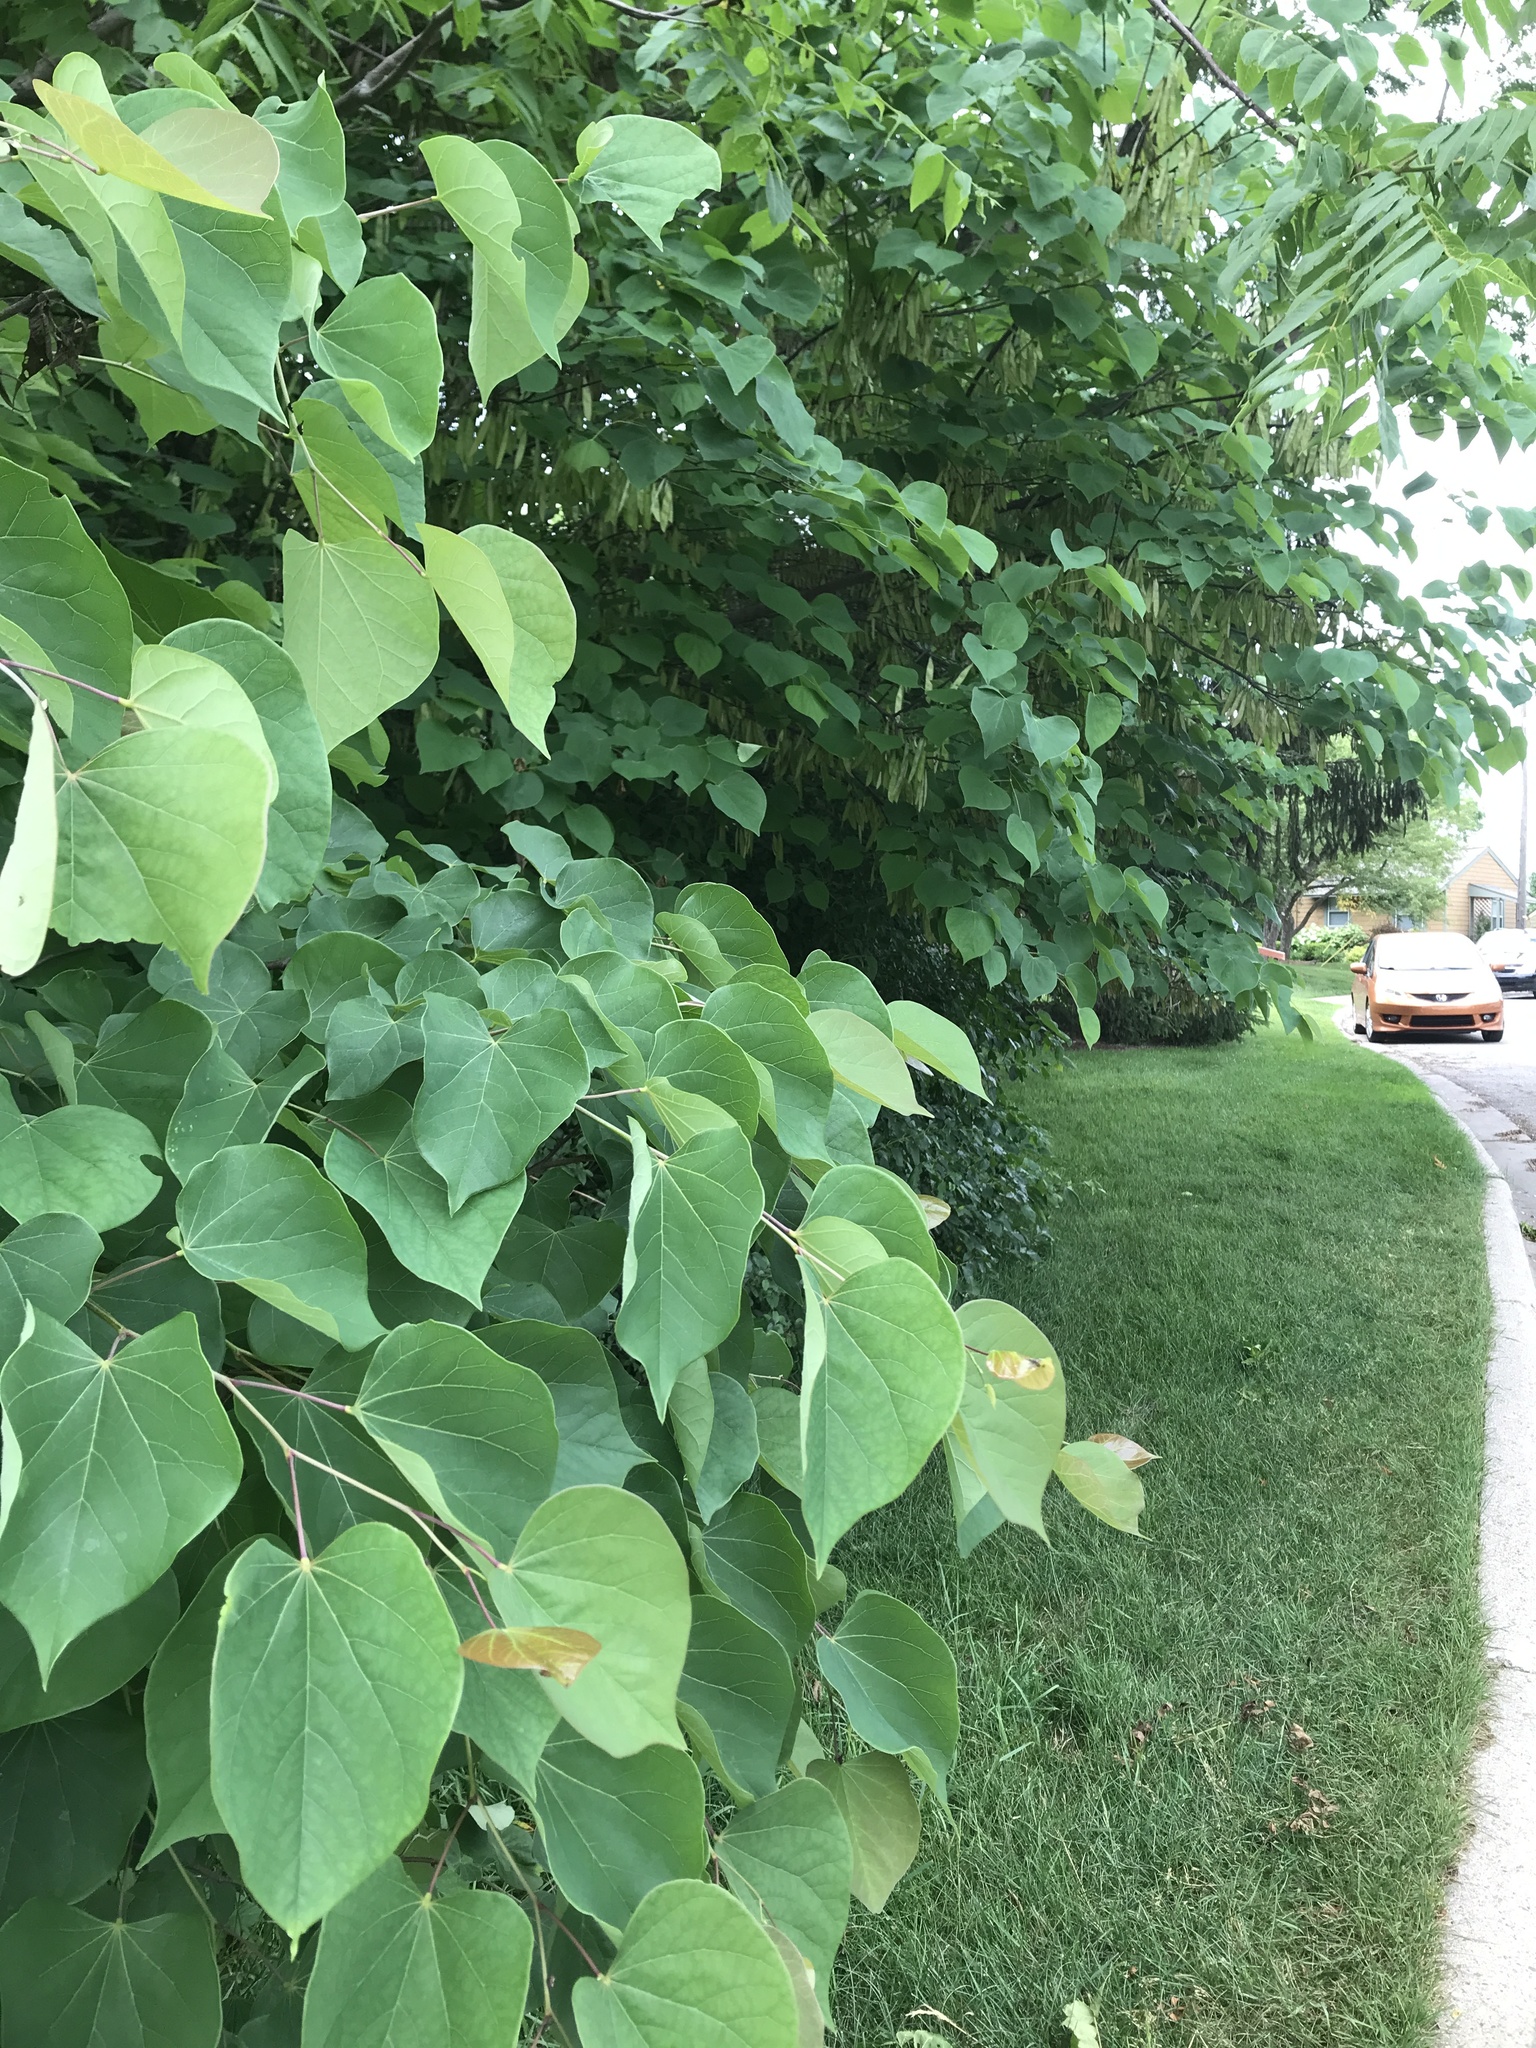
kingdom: Plantae
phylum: Tracheophyta
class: Magnoliopsida
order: Fabales
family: Fabaceae
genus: Cercis
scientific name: Cercis canadensis
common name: Eastern redbud
